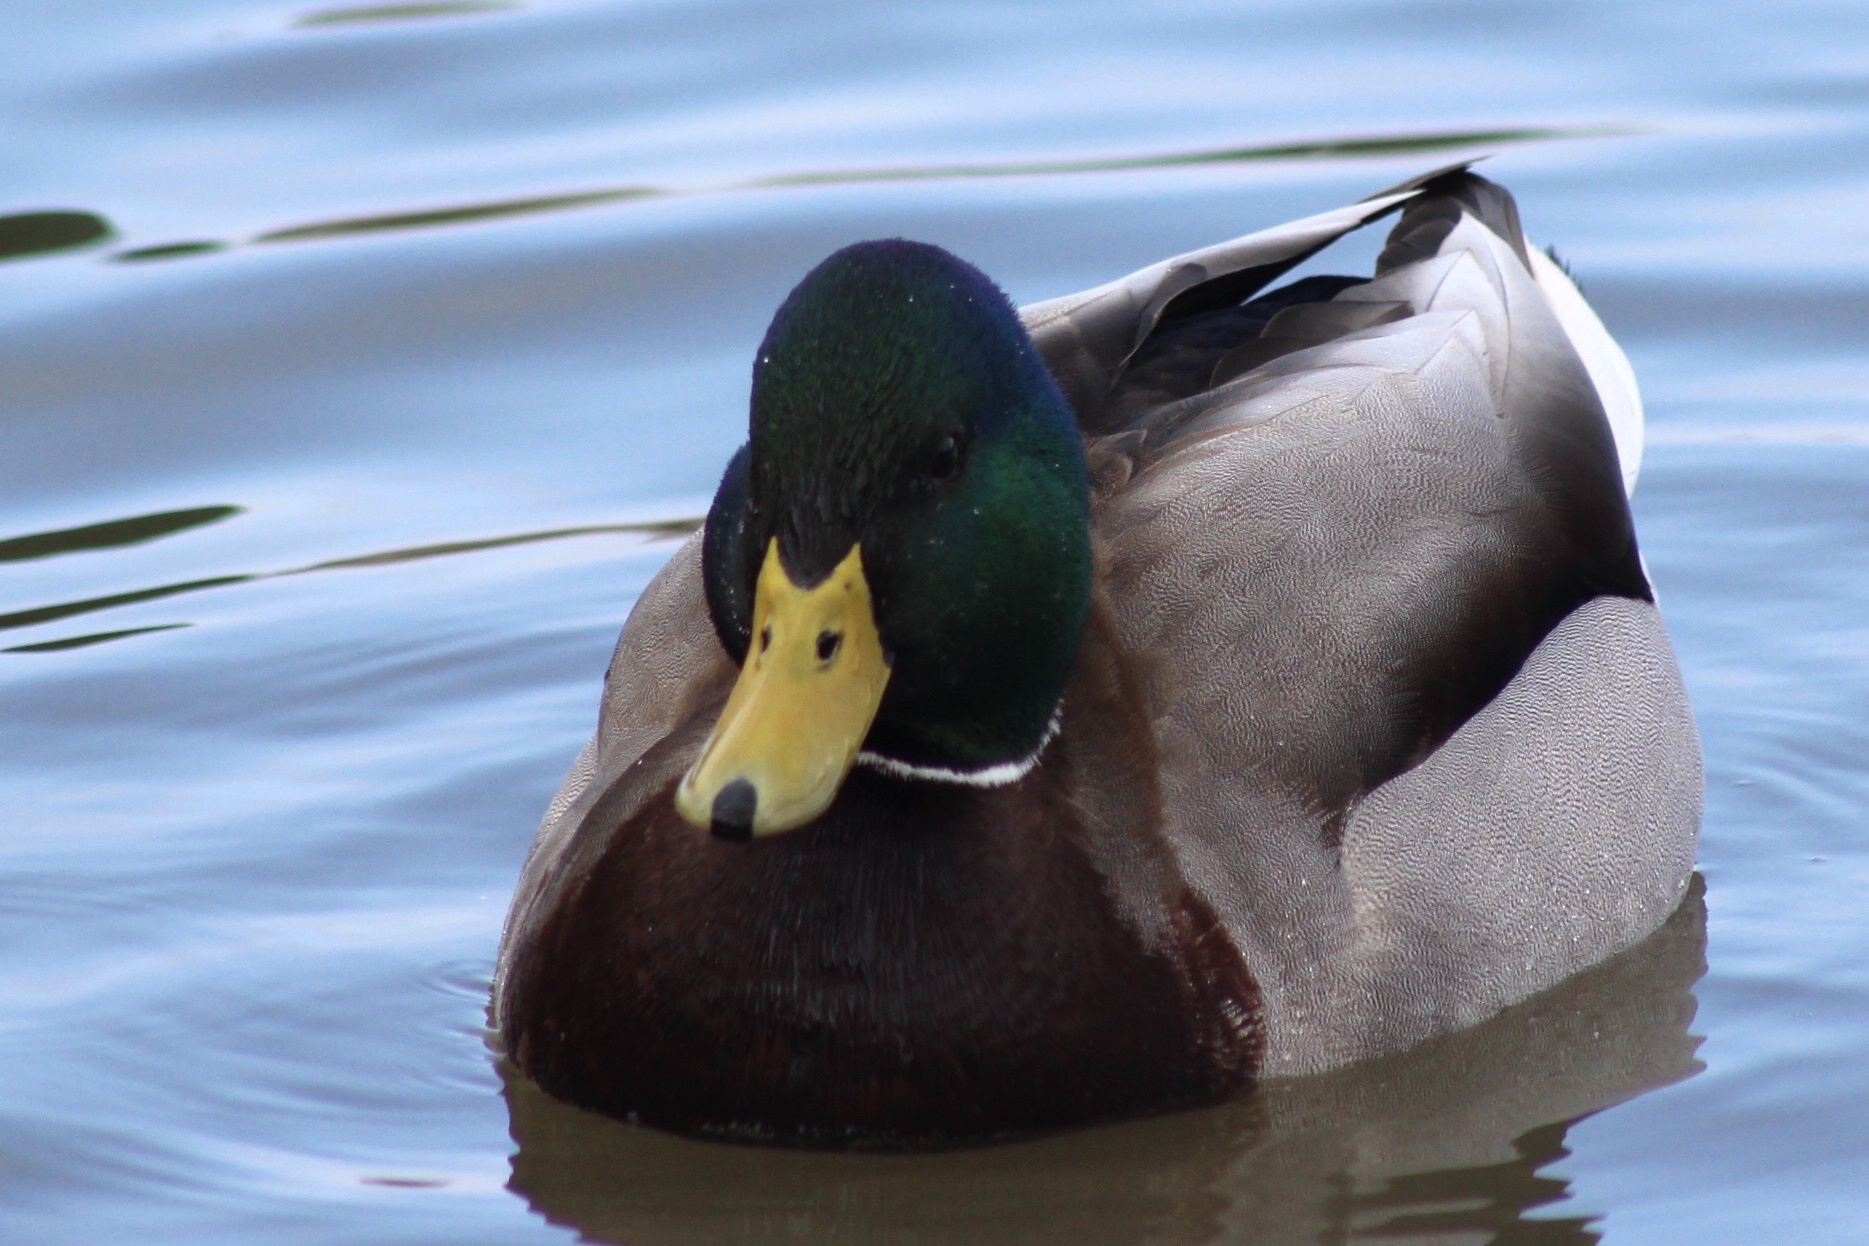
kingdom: Animalia
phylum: Chordata
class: Aves
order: Anseriformes
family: Anatidae
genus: Anas
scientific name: Anas platyrhynchos
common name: Mallard
